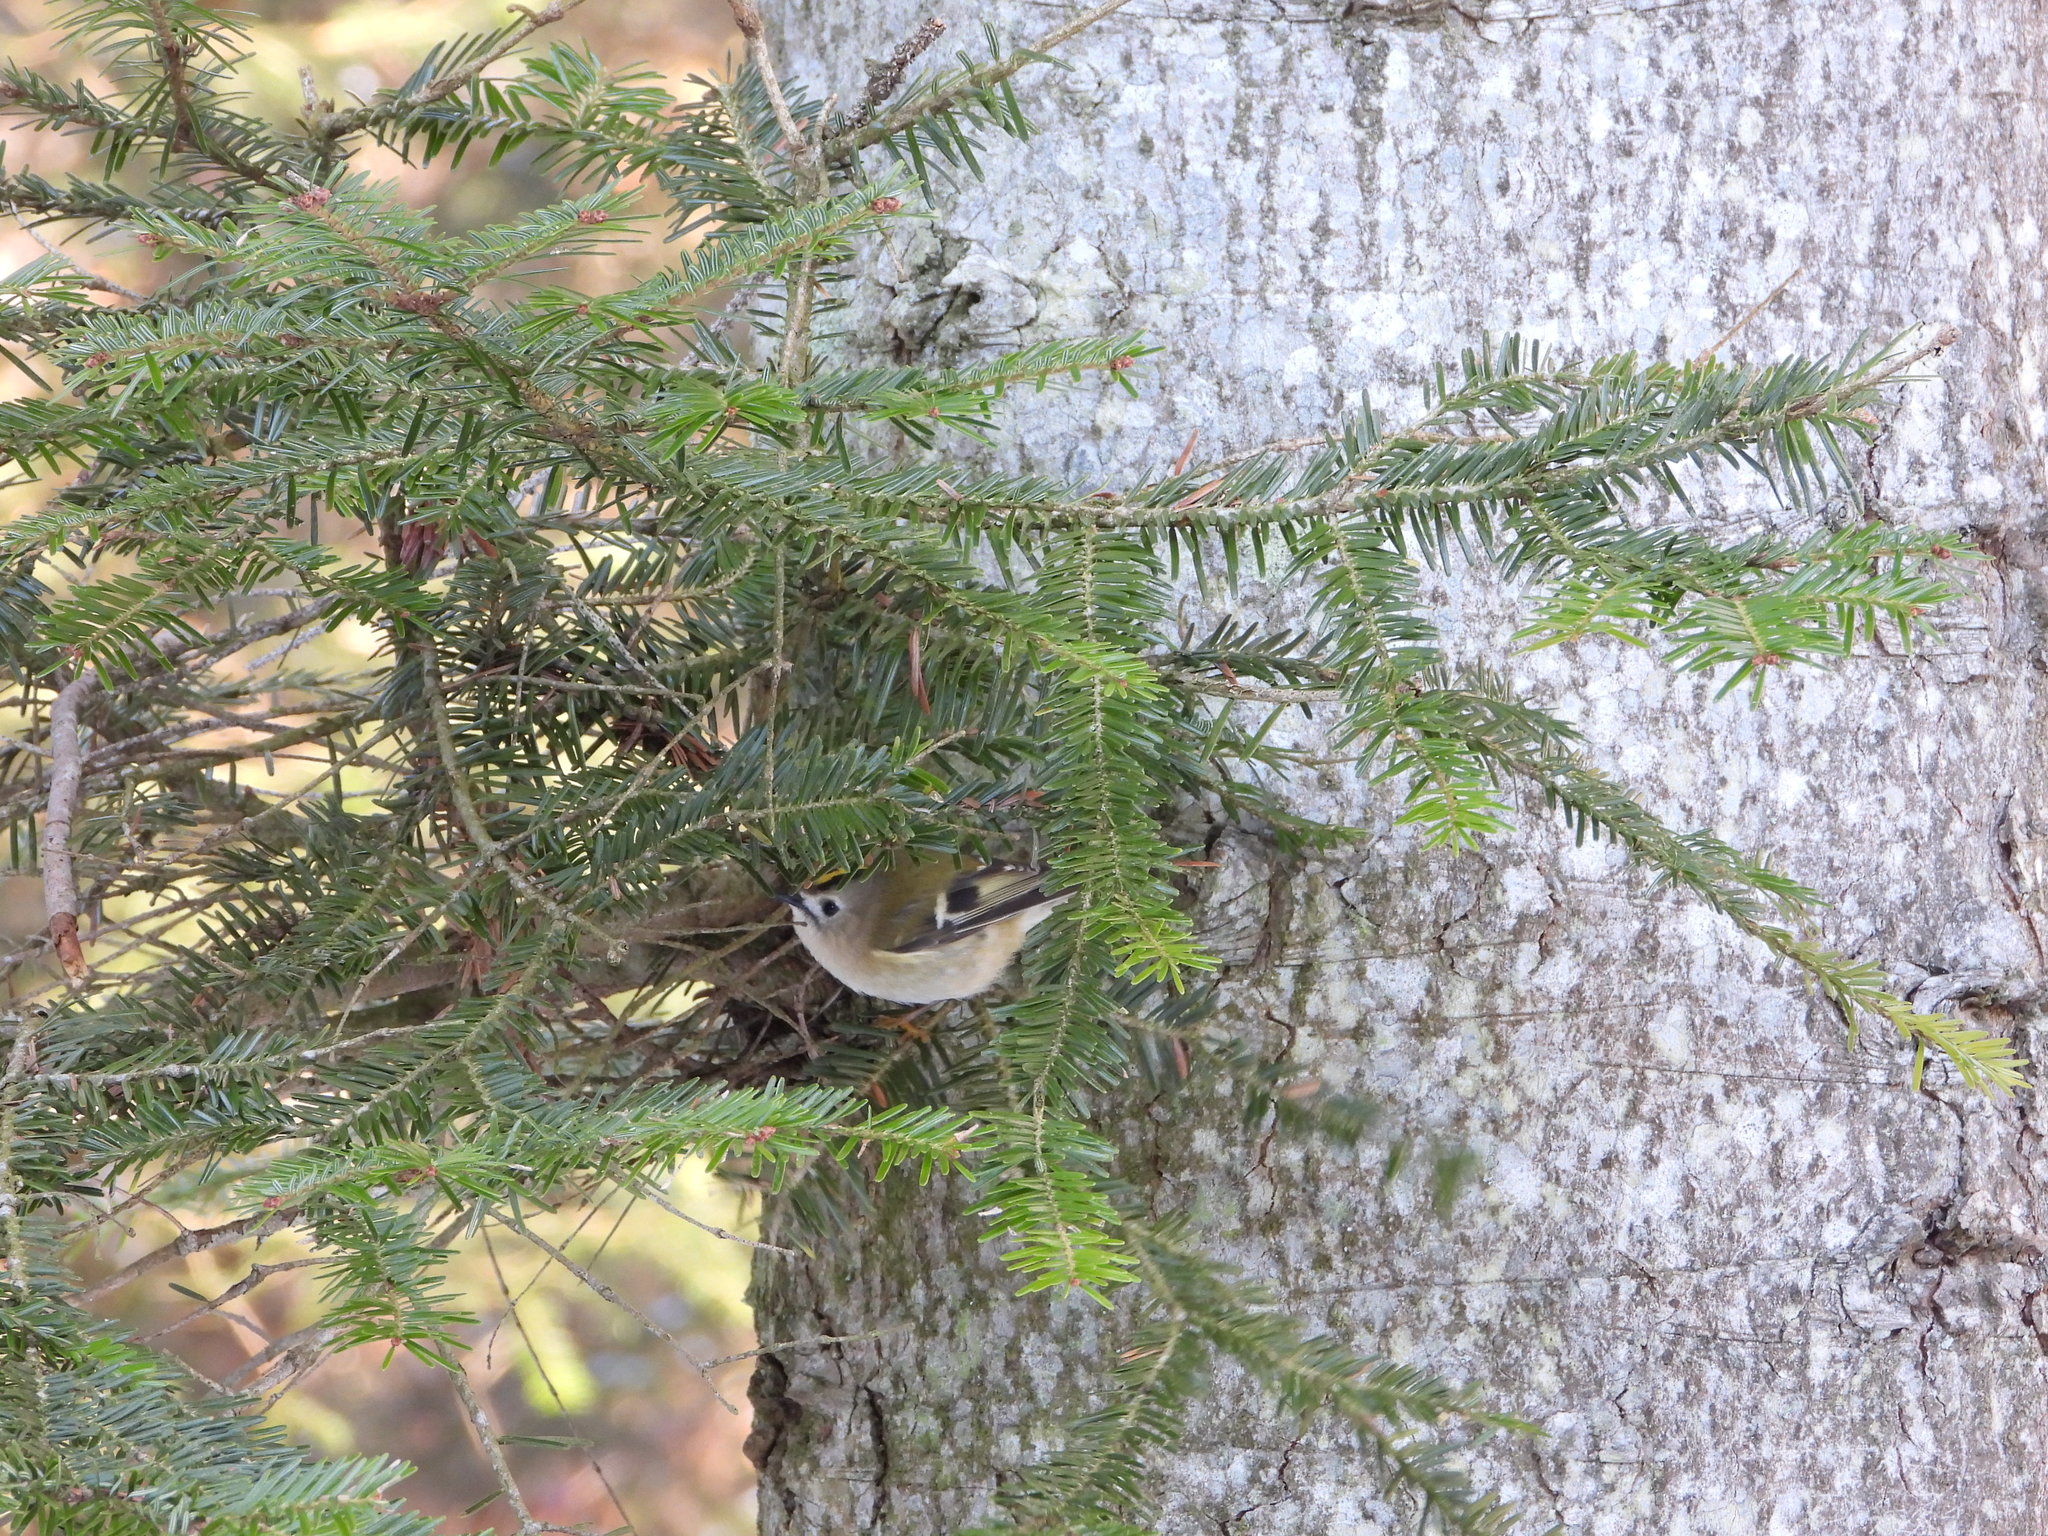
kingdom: Animalia
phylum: Chordata
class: Aves
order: Passeriformes
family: Regulidae
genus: Regulus
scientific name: Regulus regulus
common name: Goldcrest
